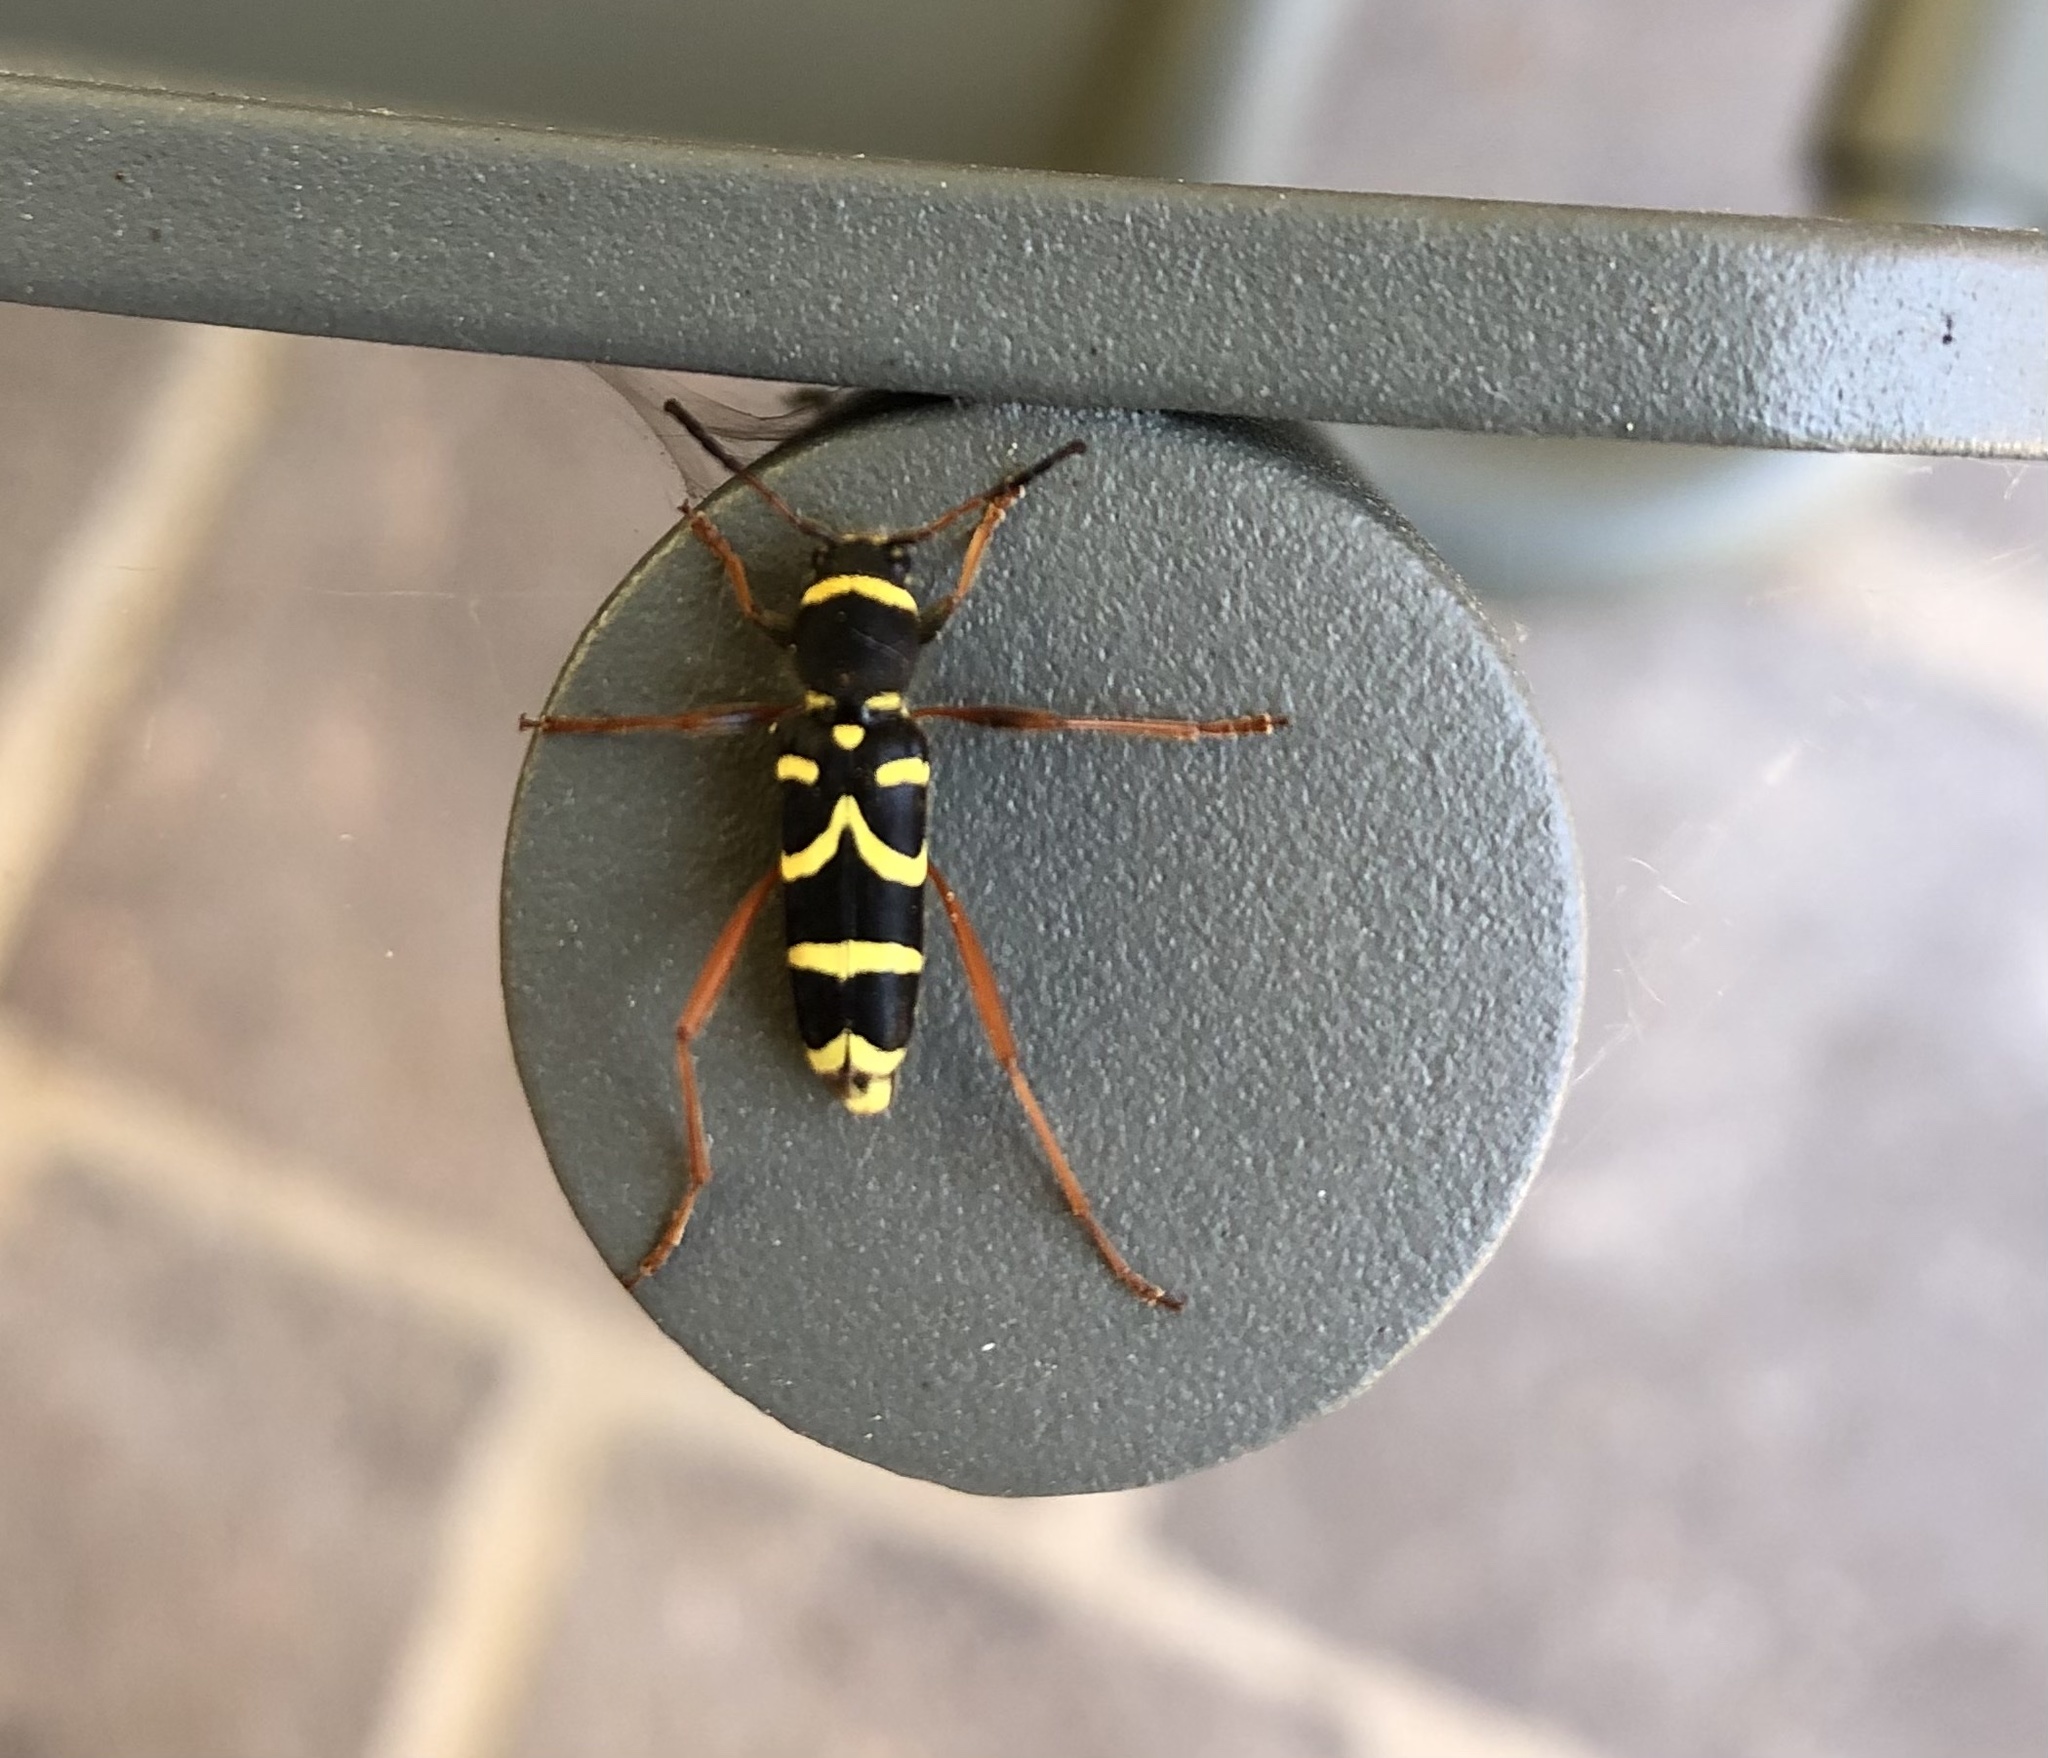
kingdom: Animalia
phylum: Arthropoda
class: Insecta
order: Coleoptera
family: Cerambycidae
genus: Clytus
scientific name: Clytus arietis
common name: Wasp beetle
